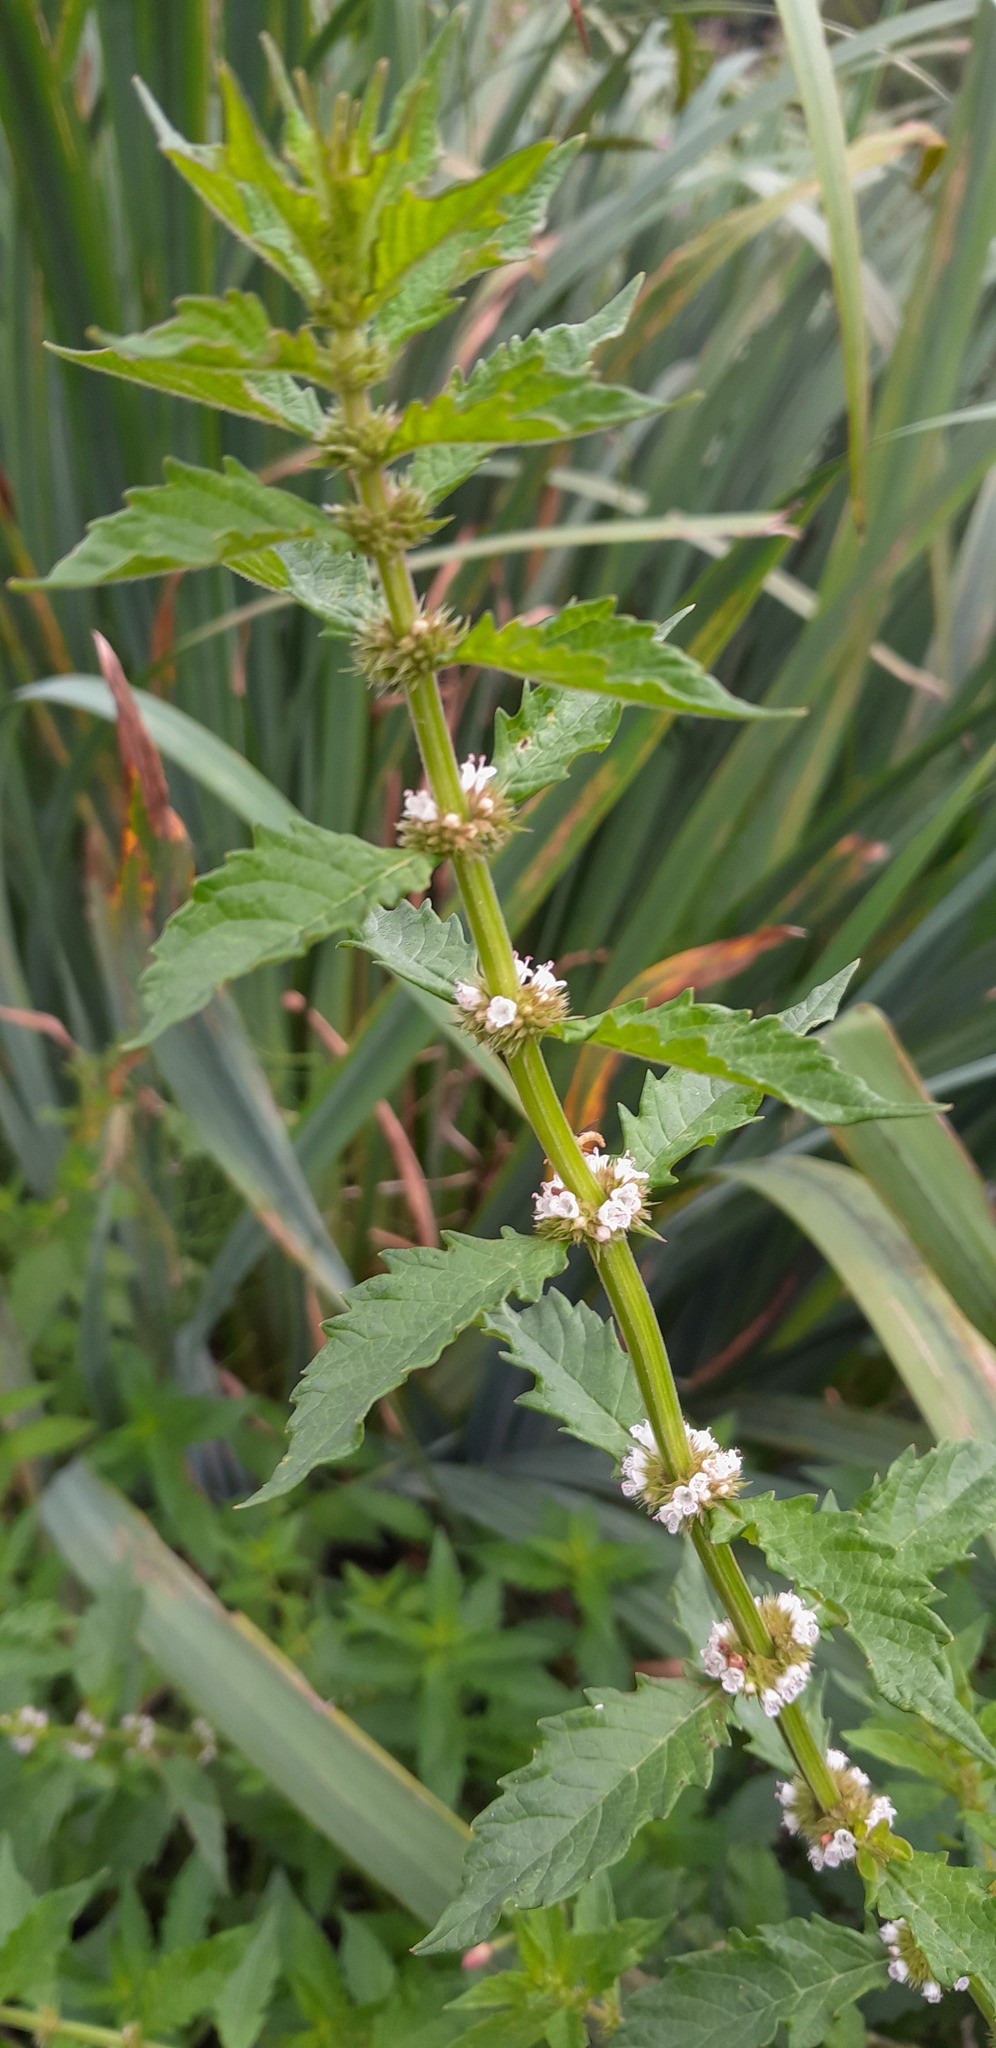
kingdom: Plantae
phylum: Tracheophyta
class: Magnoliopsida
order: Lamiales
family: Lamiaceae
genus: Lycopus
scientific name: Lycopus europaeus
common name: European bugleweed
